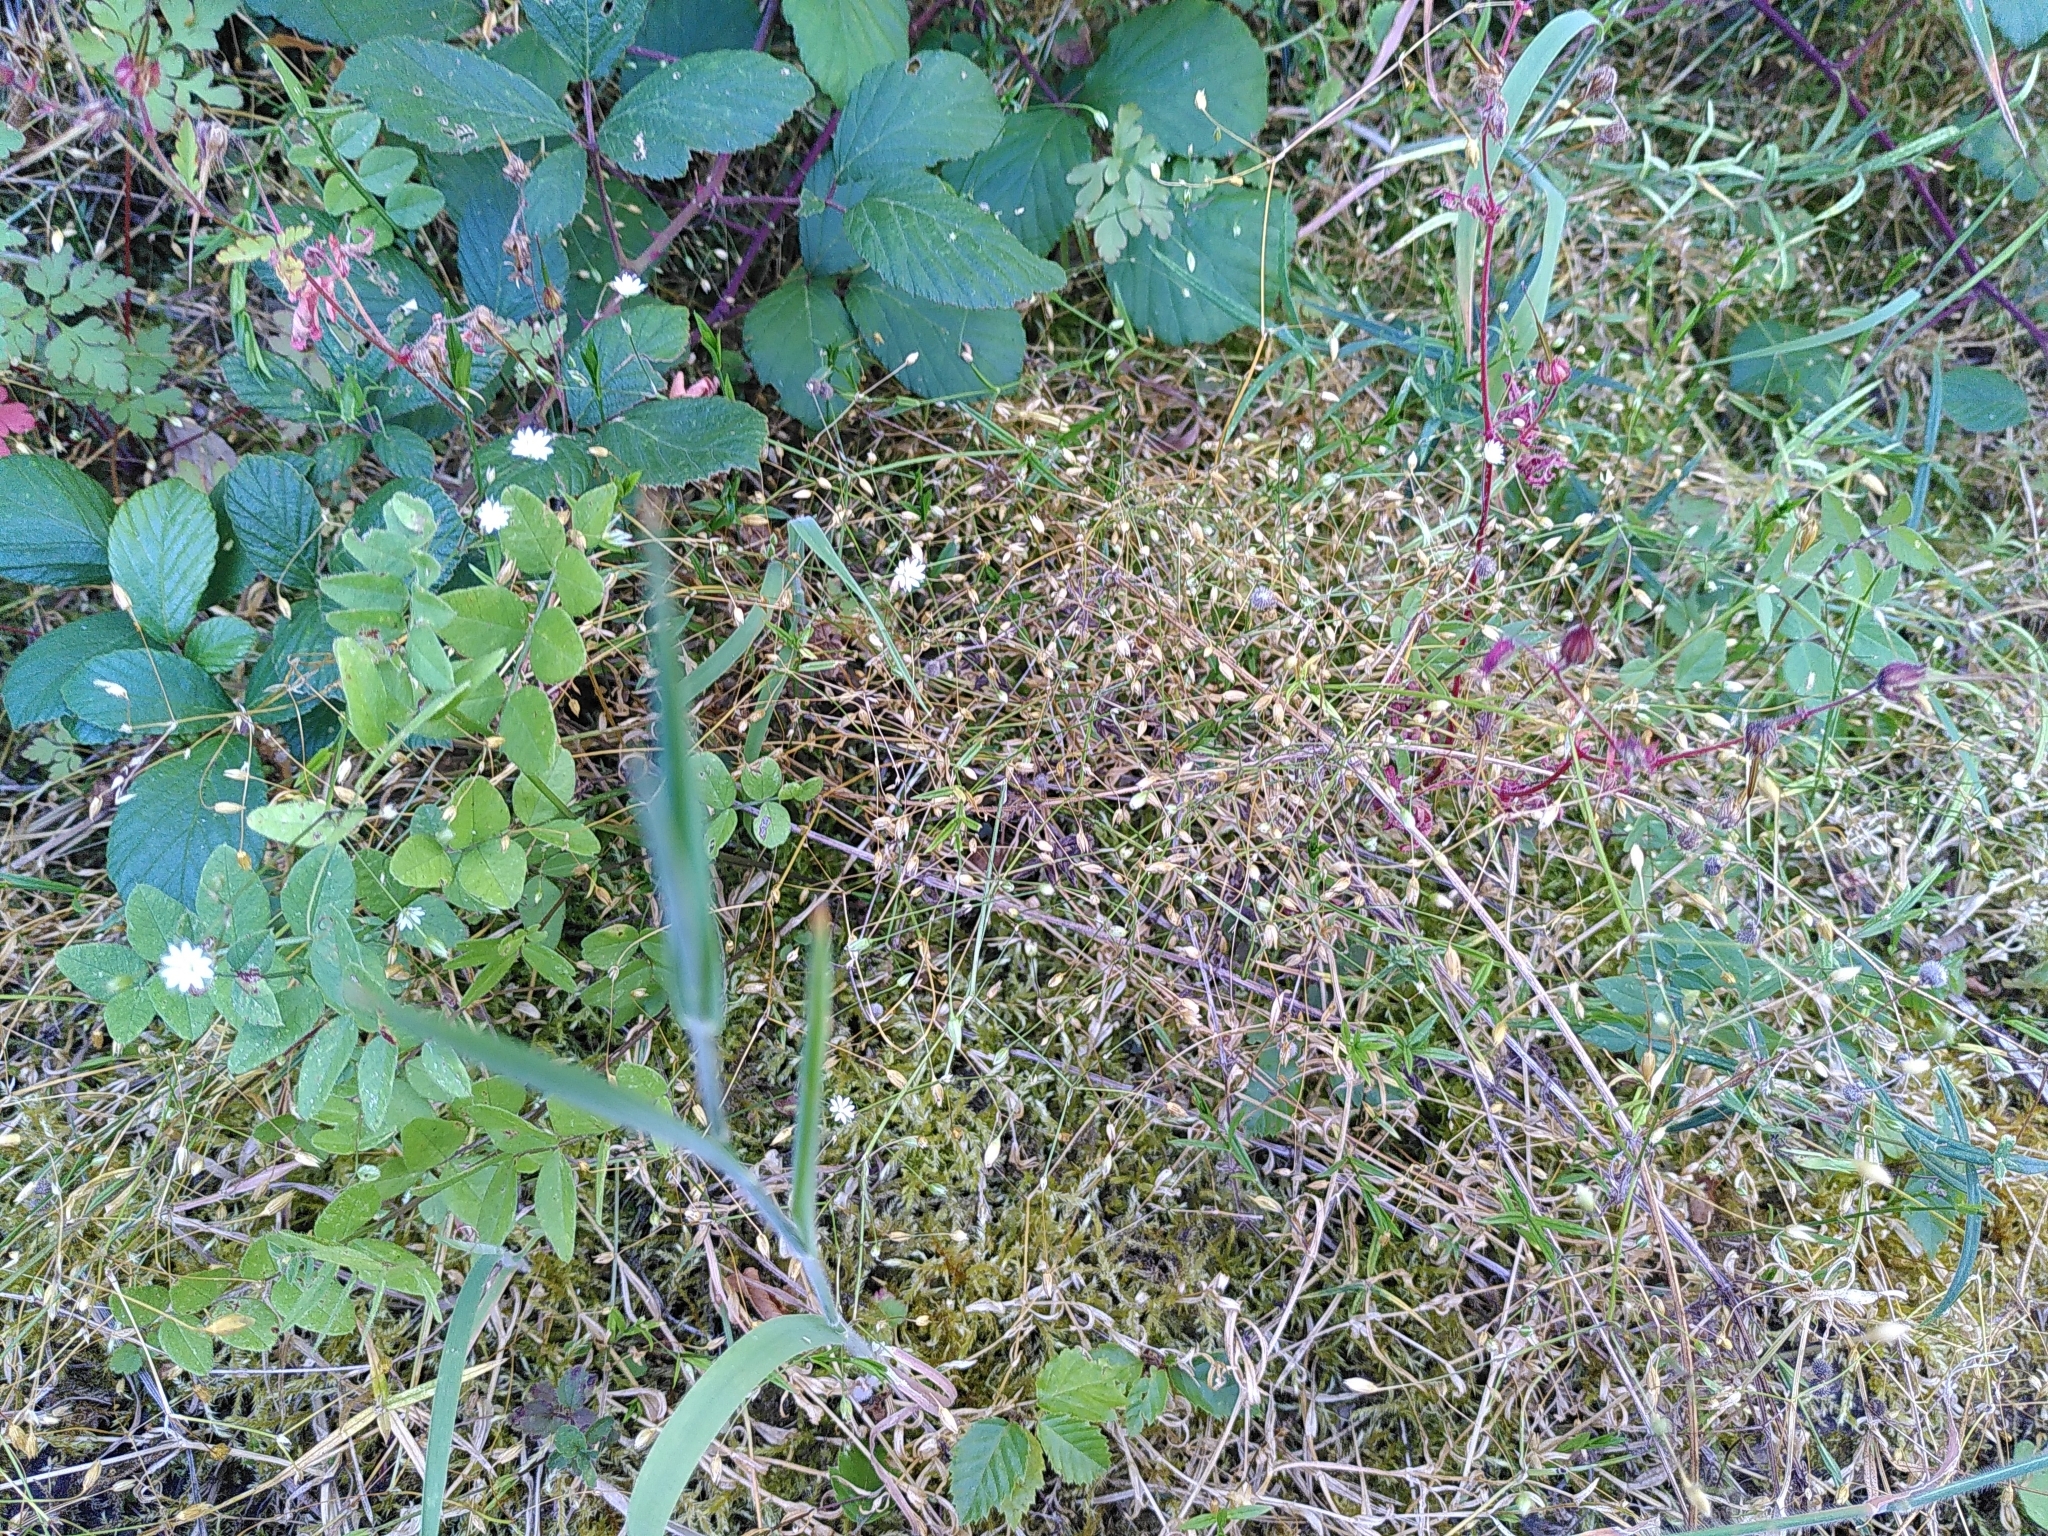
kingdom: Plantae
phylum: Tracheophyta
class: Magnoliopsida
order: Caryophyllales
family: Caryophyllaceae
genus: Stellaria
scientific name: Stellaria graminea
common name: Grass-like starwort
